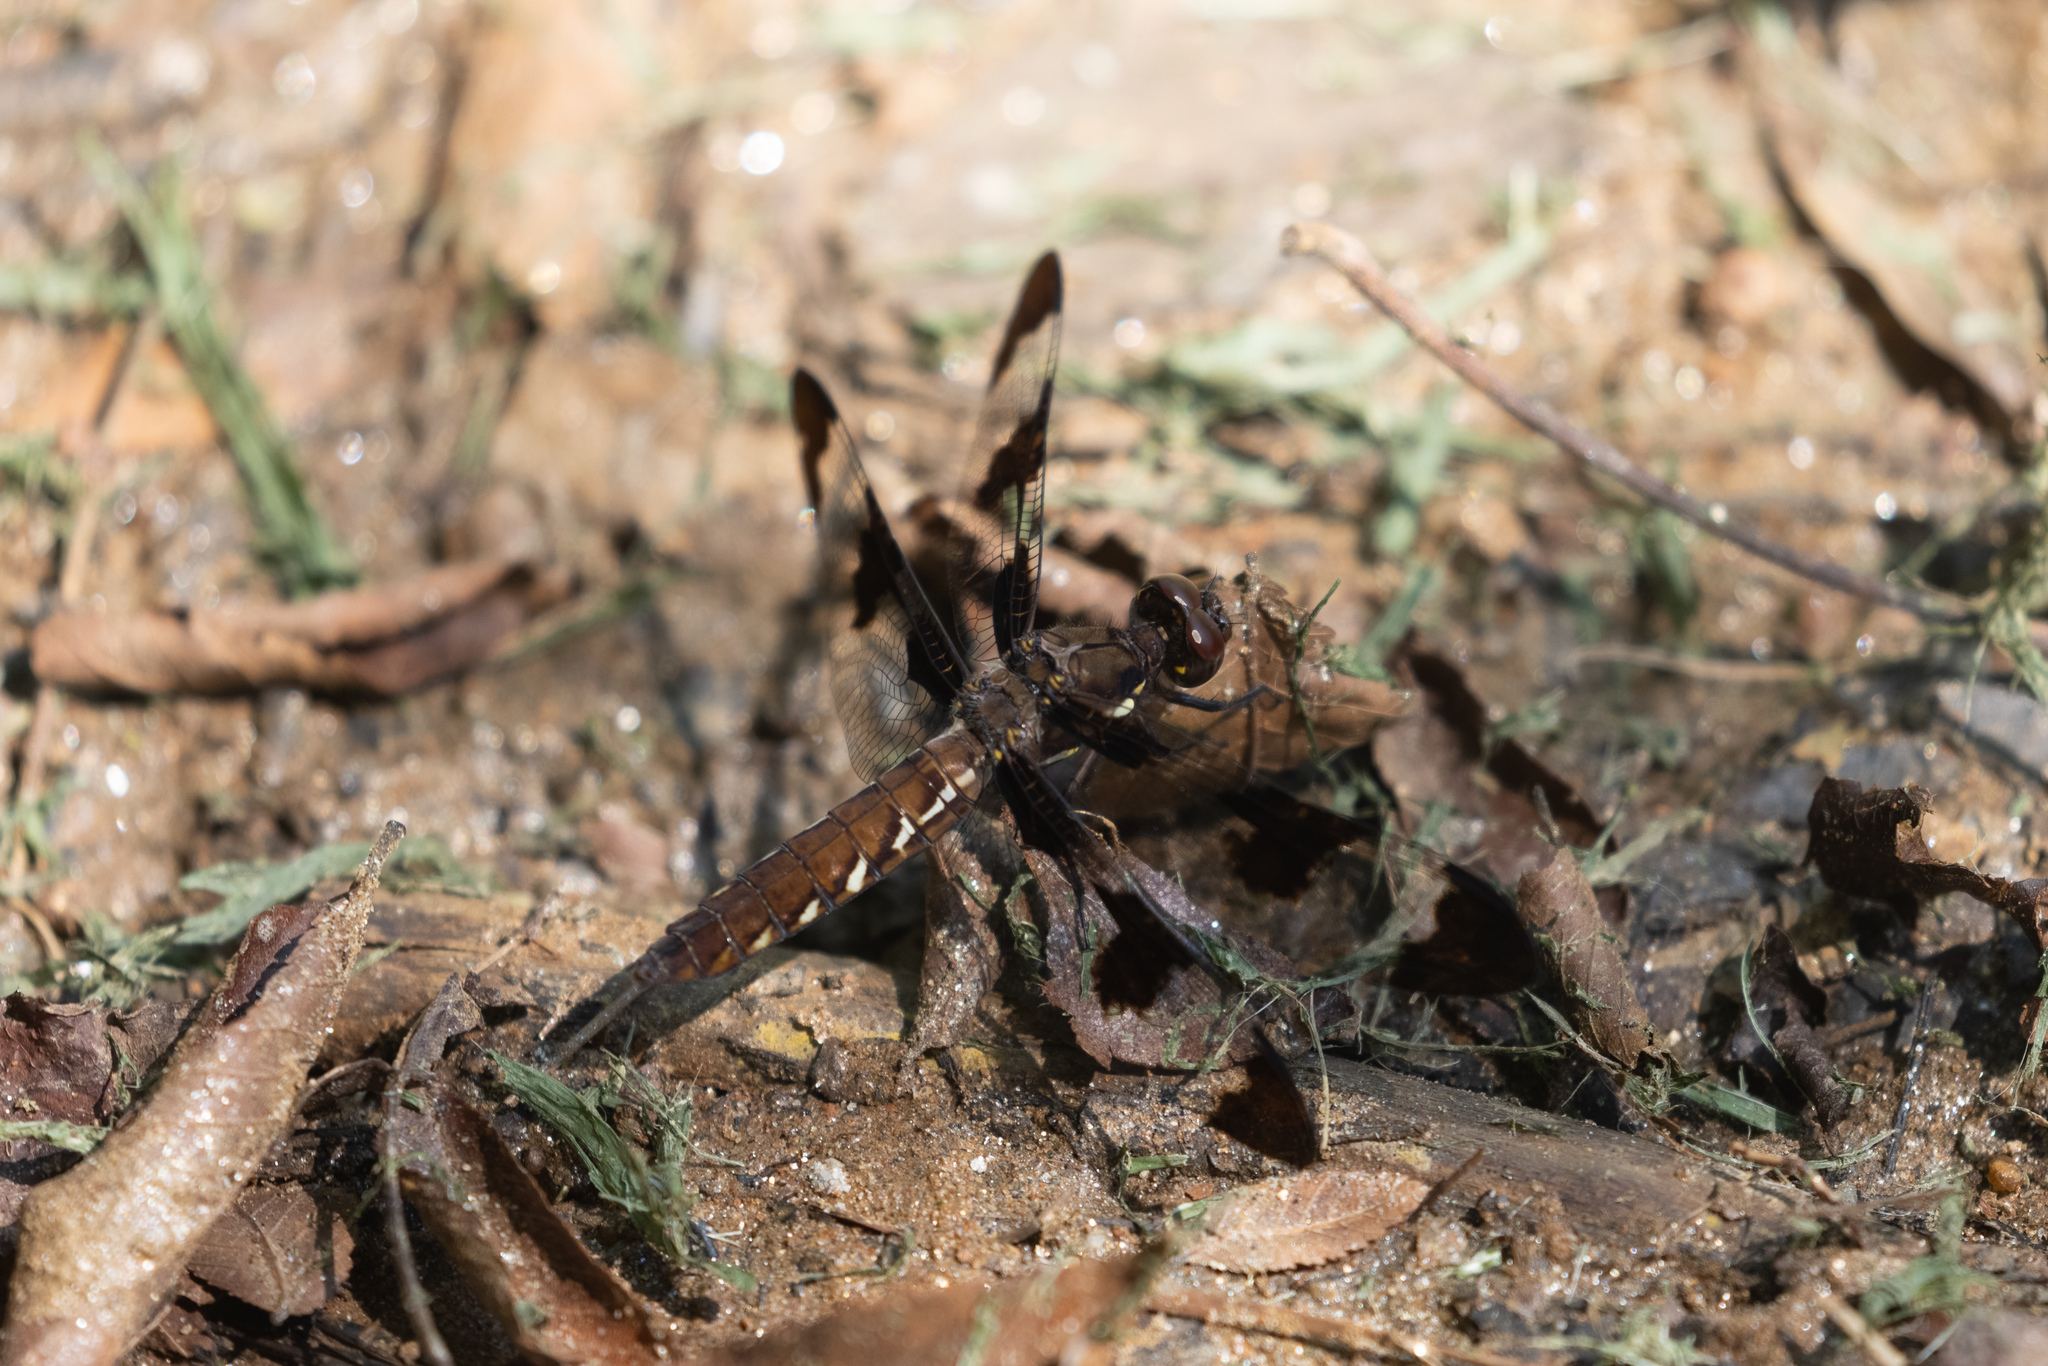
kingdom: Animalia
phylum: Arthropoda
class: Insecta
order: Odonata
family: Libellulidae
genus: Plathemis
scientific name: Plathemis lydia
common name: Common whitetail
